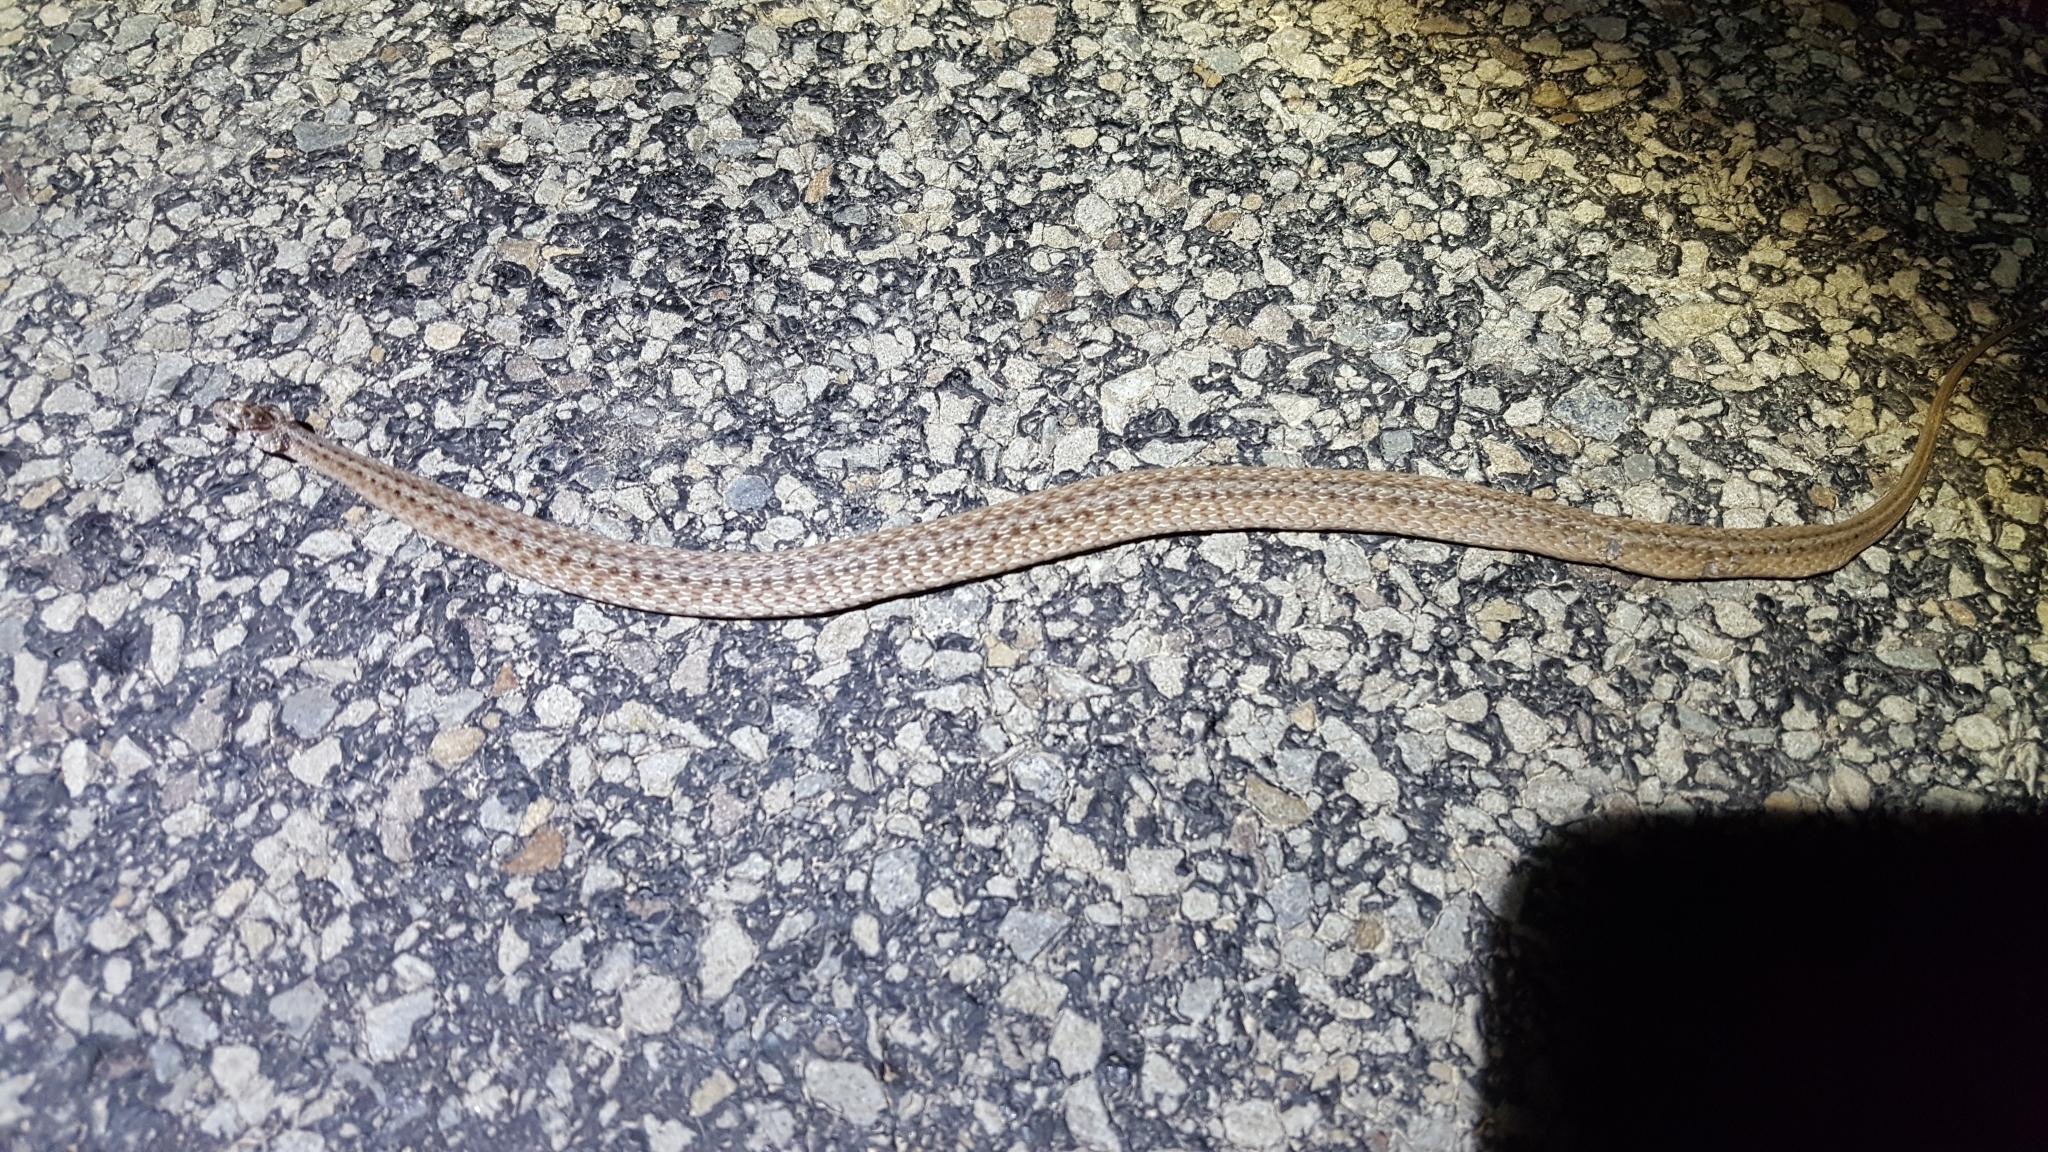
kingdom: Animalia
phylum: Chordata
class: Squamata
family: Colubridae
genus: Storeria
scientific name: Storeria dekayi
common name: (dekay’s) brown snake
